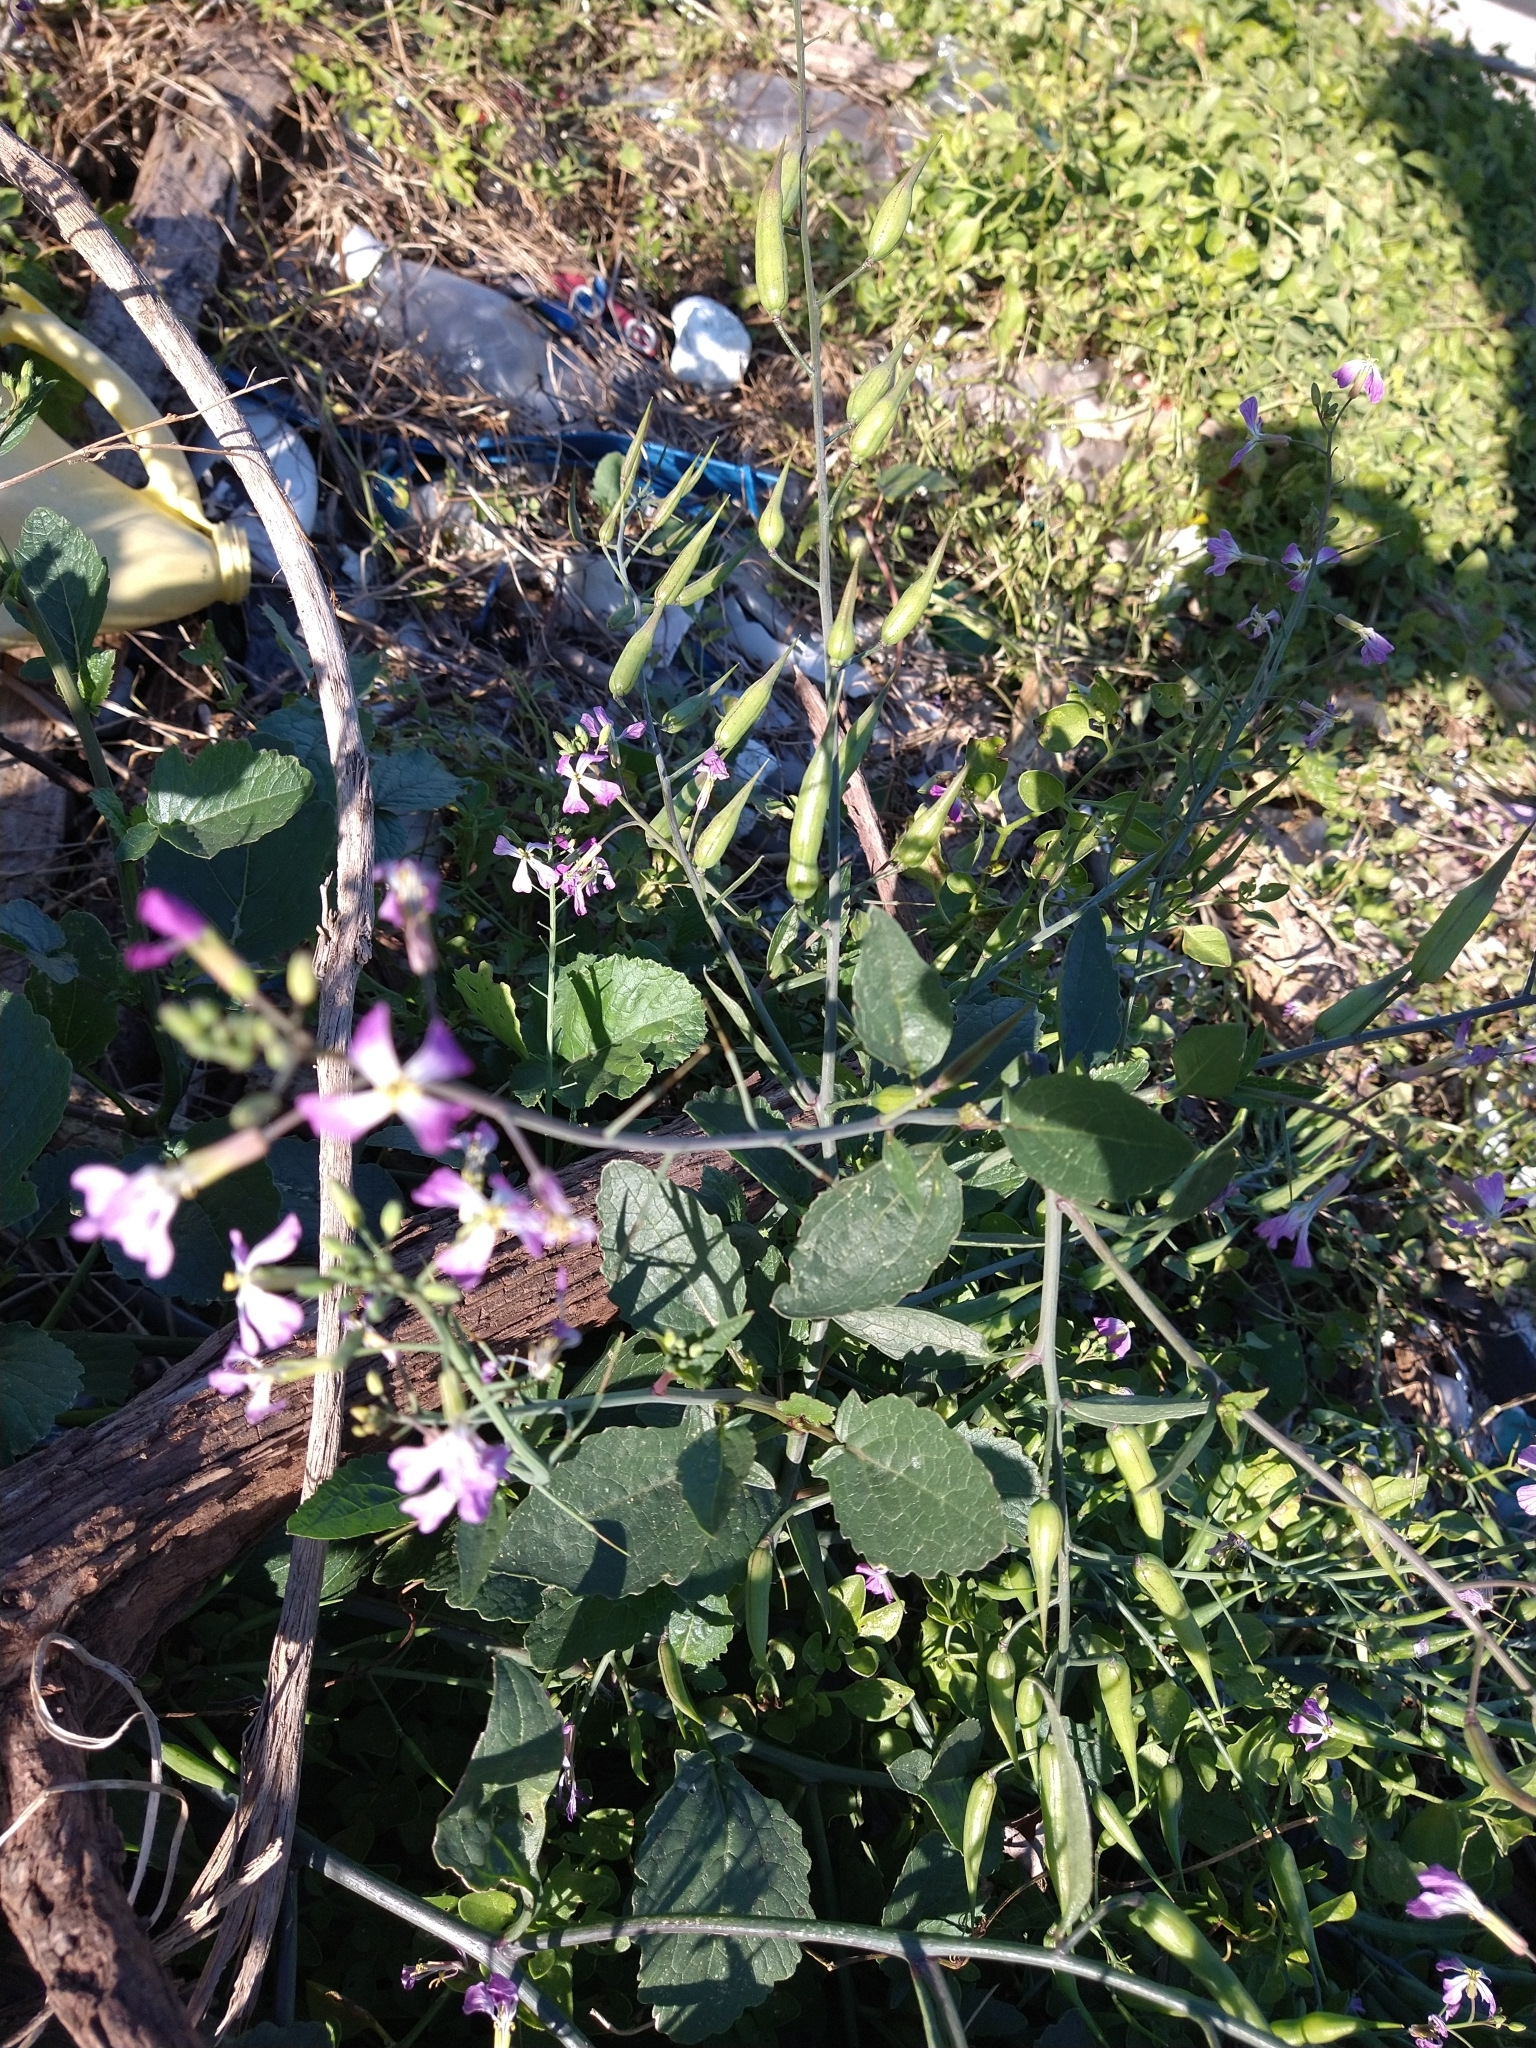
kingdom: Plantae
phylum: Tracheophyta
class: Magnoliopsida
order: Brassicales
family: Brassicaceae
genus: Raphanus
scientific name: Raphanus sativus
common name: Cultivated radish
